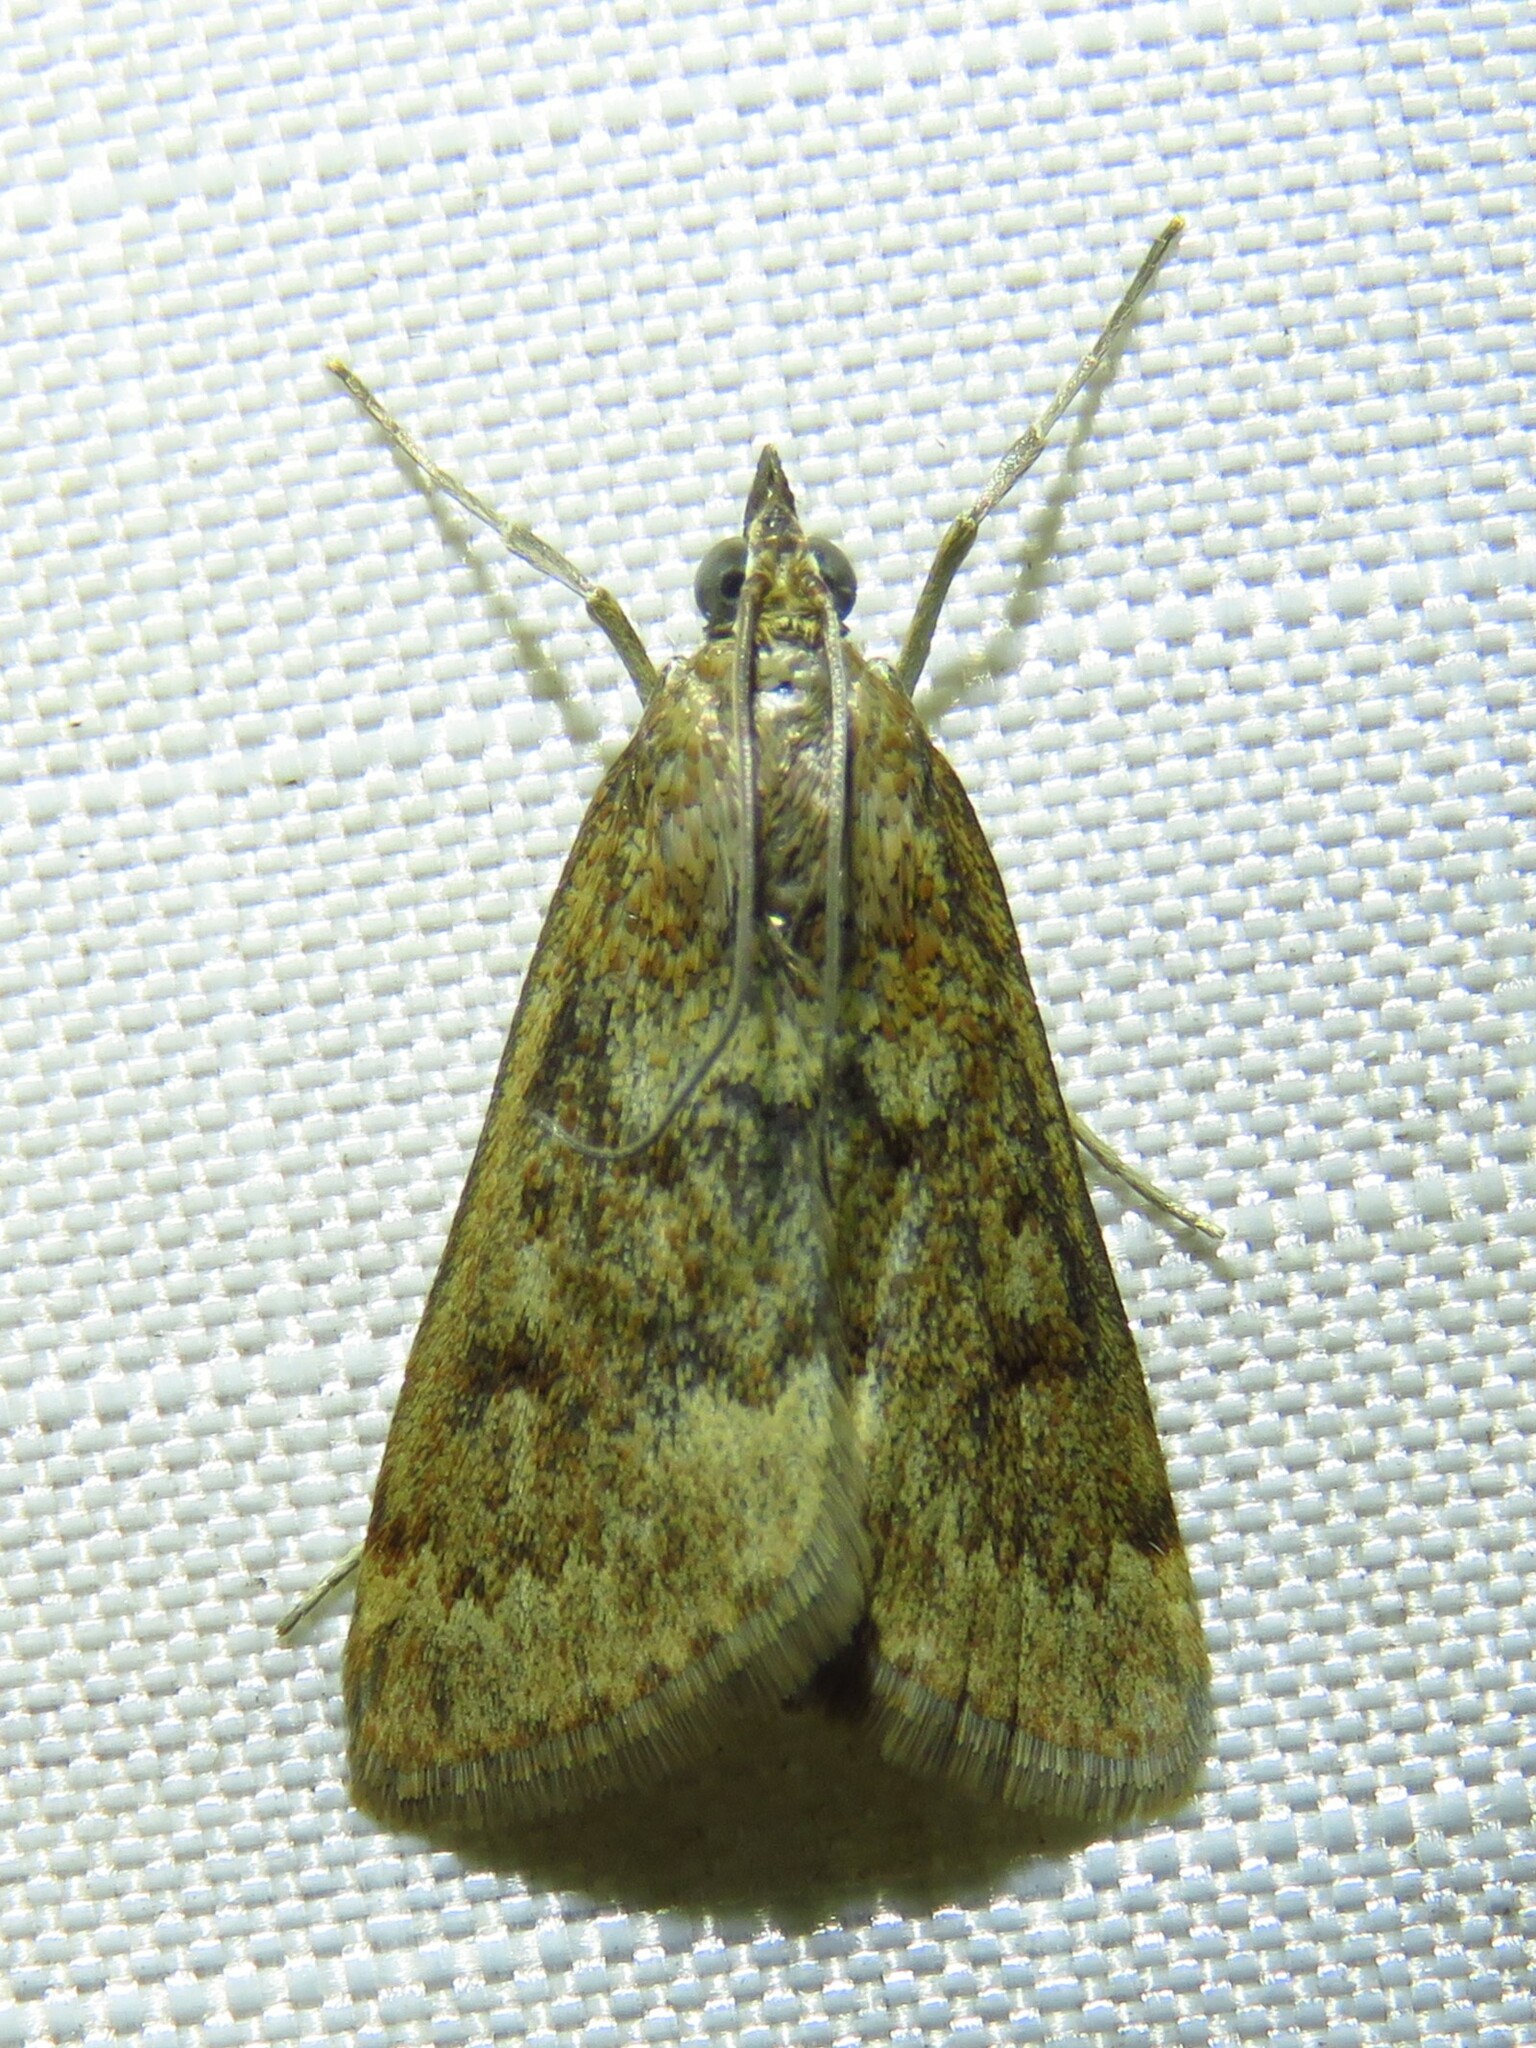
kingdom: Animalia
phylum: Arthropoda
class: Insecta
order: Lepidoptera
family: Crambidae
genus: Achyra
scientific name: Achyra rantalis
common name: Garden webworm
